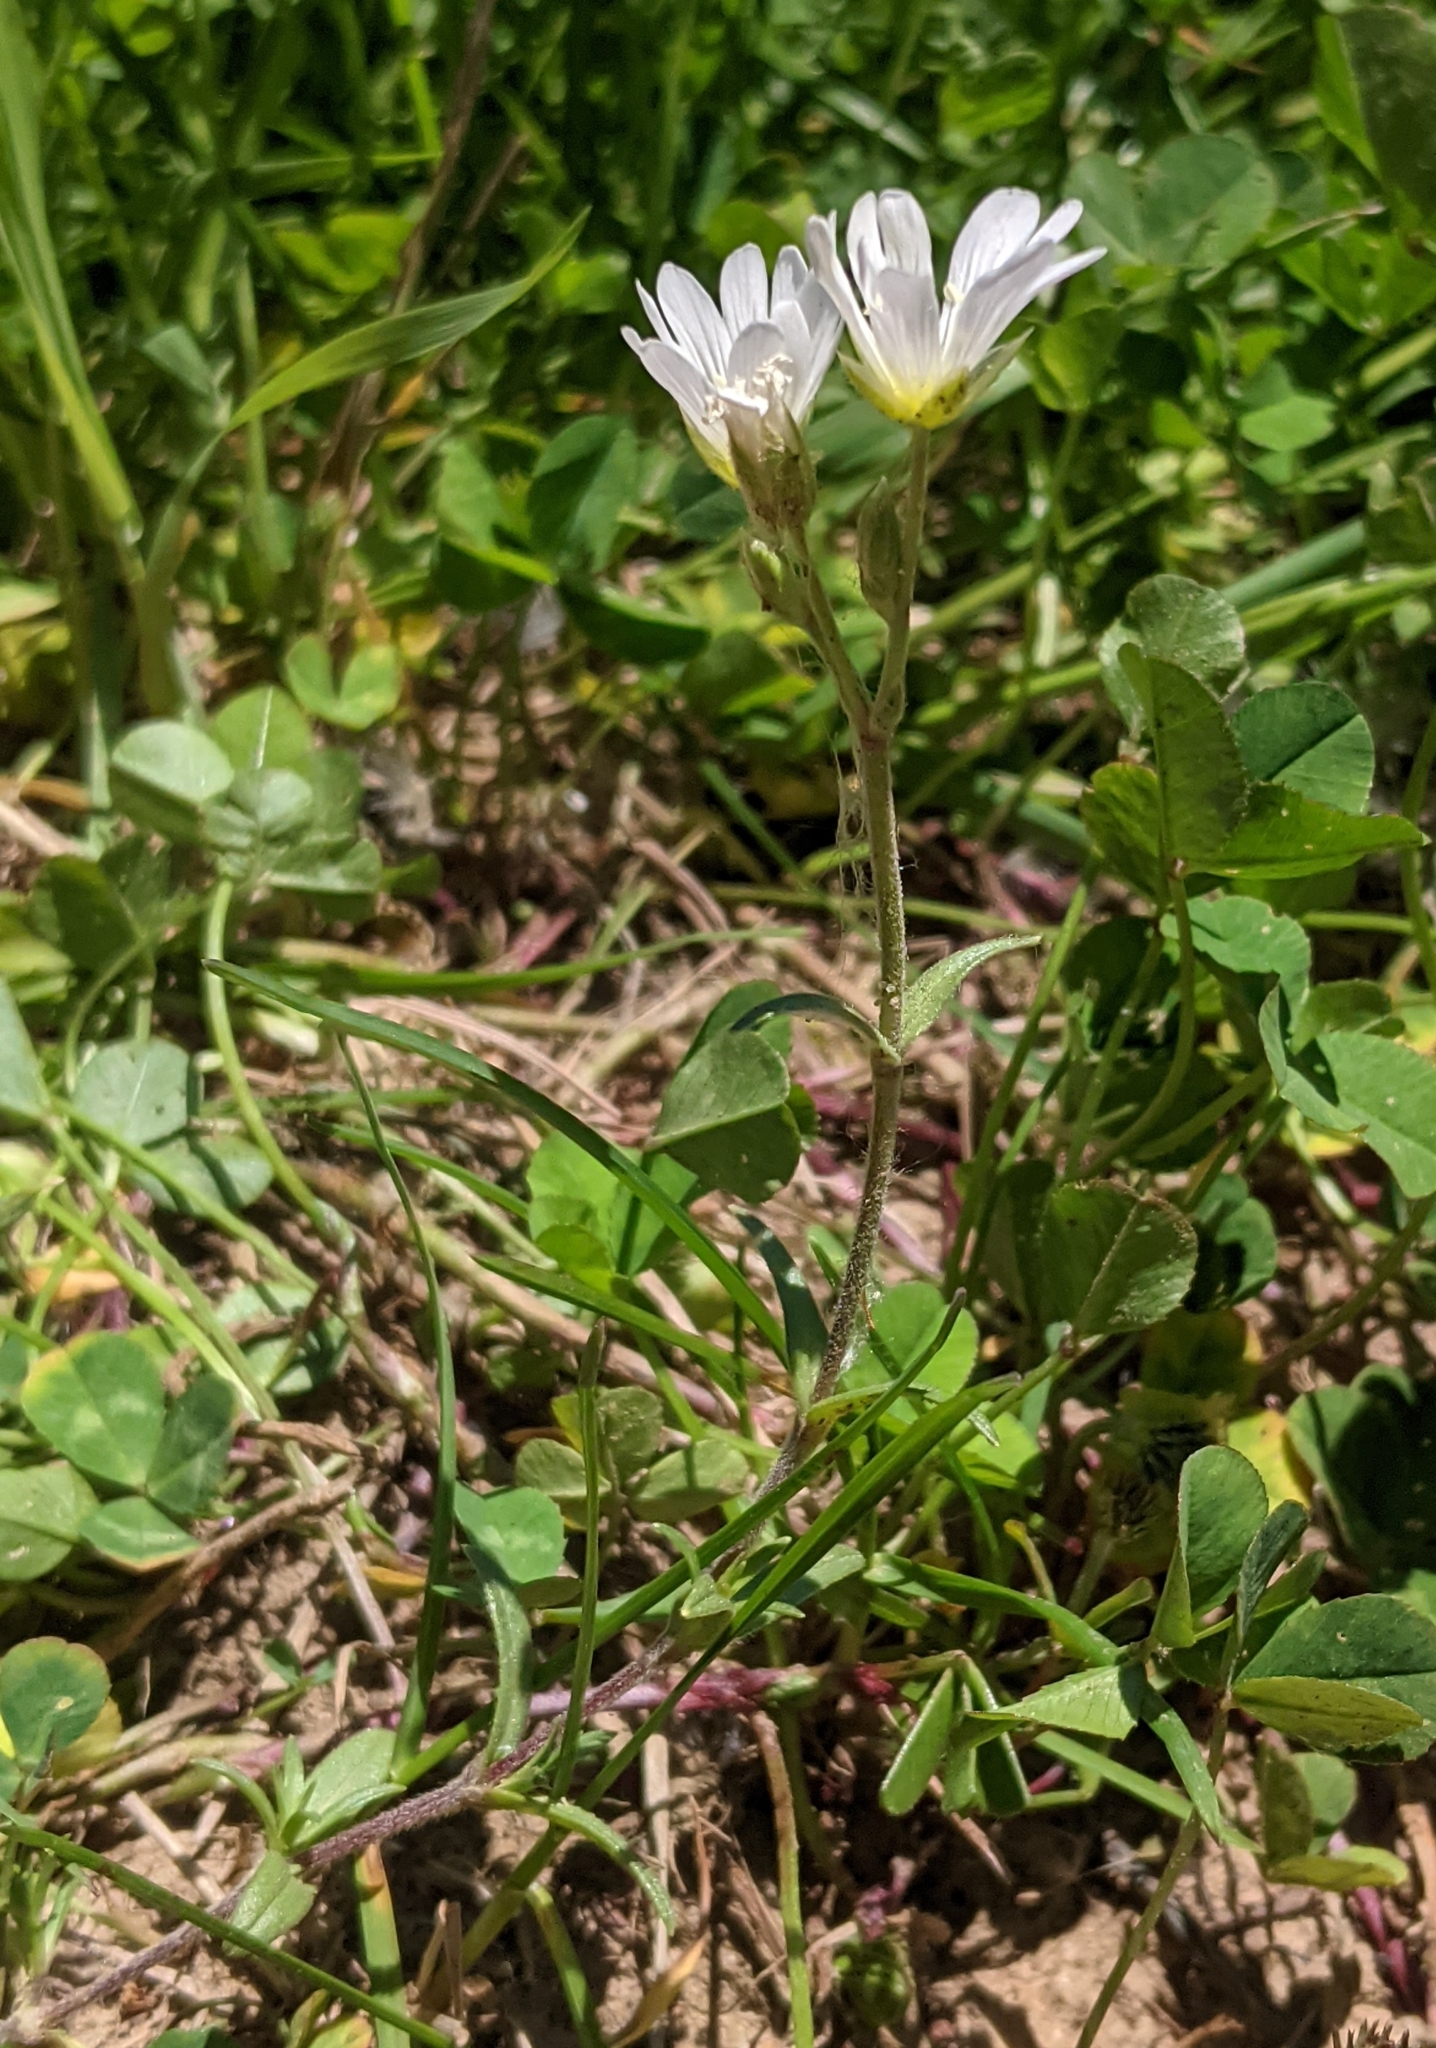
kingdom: Plantae
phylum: Tracheophyta
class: Magnoliopsida
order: Caryophyllales
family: Caryophyllaceae
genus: Cerastium
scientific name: Cerastium arvense
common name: Field mouse-ear
